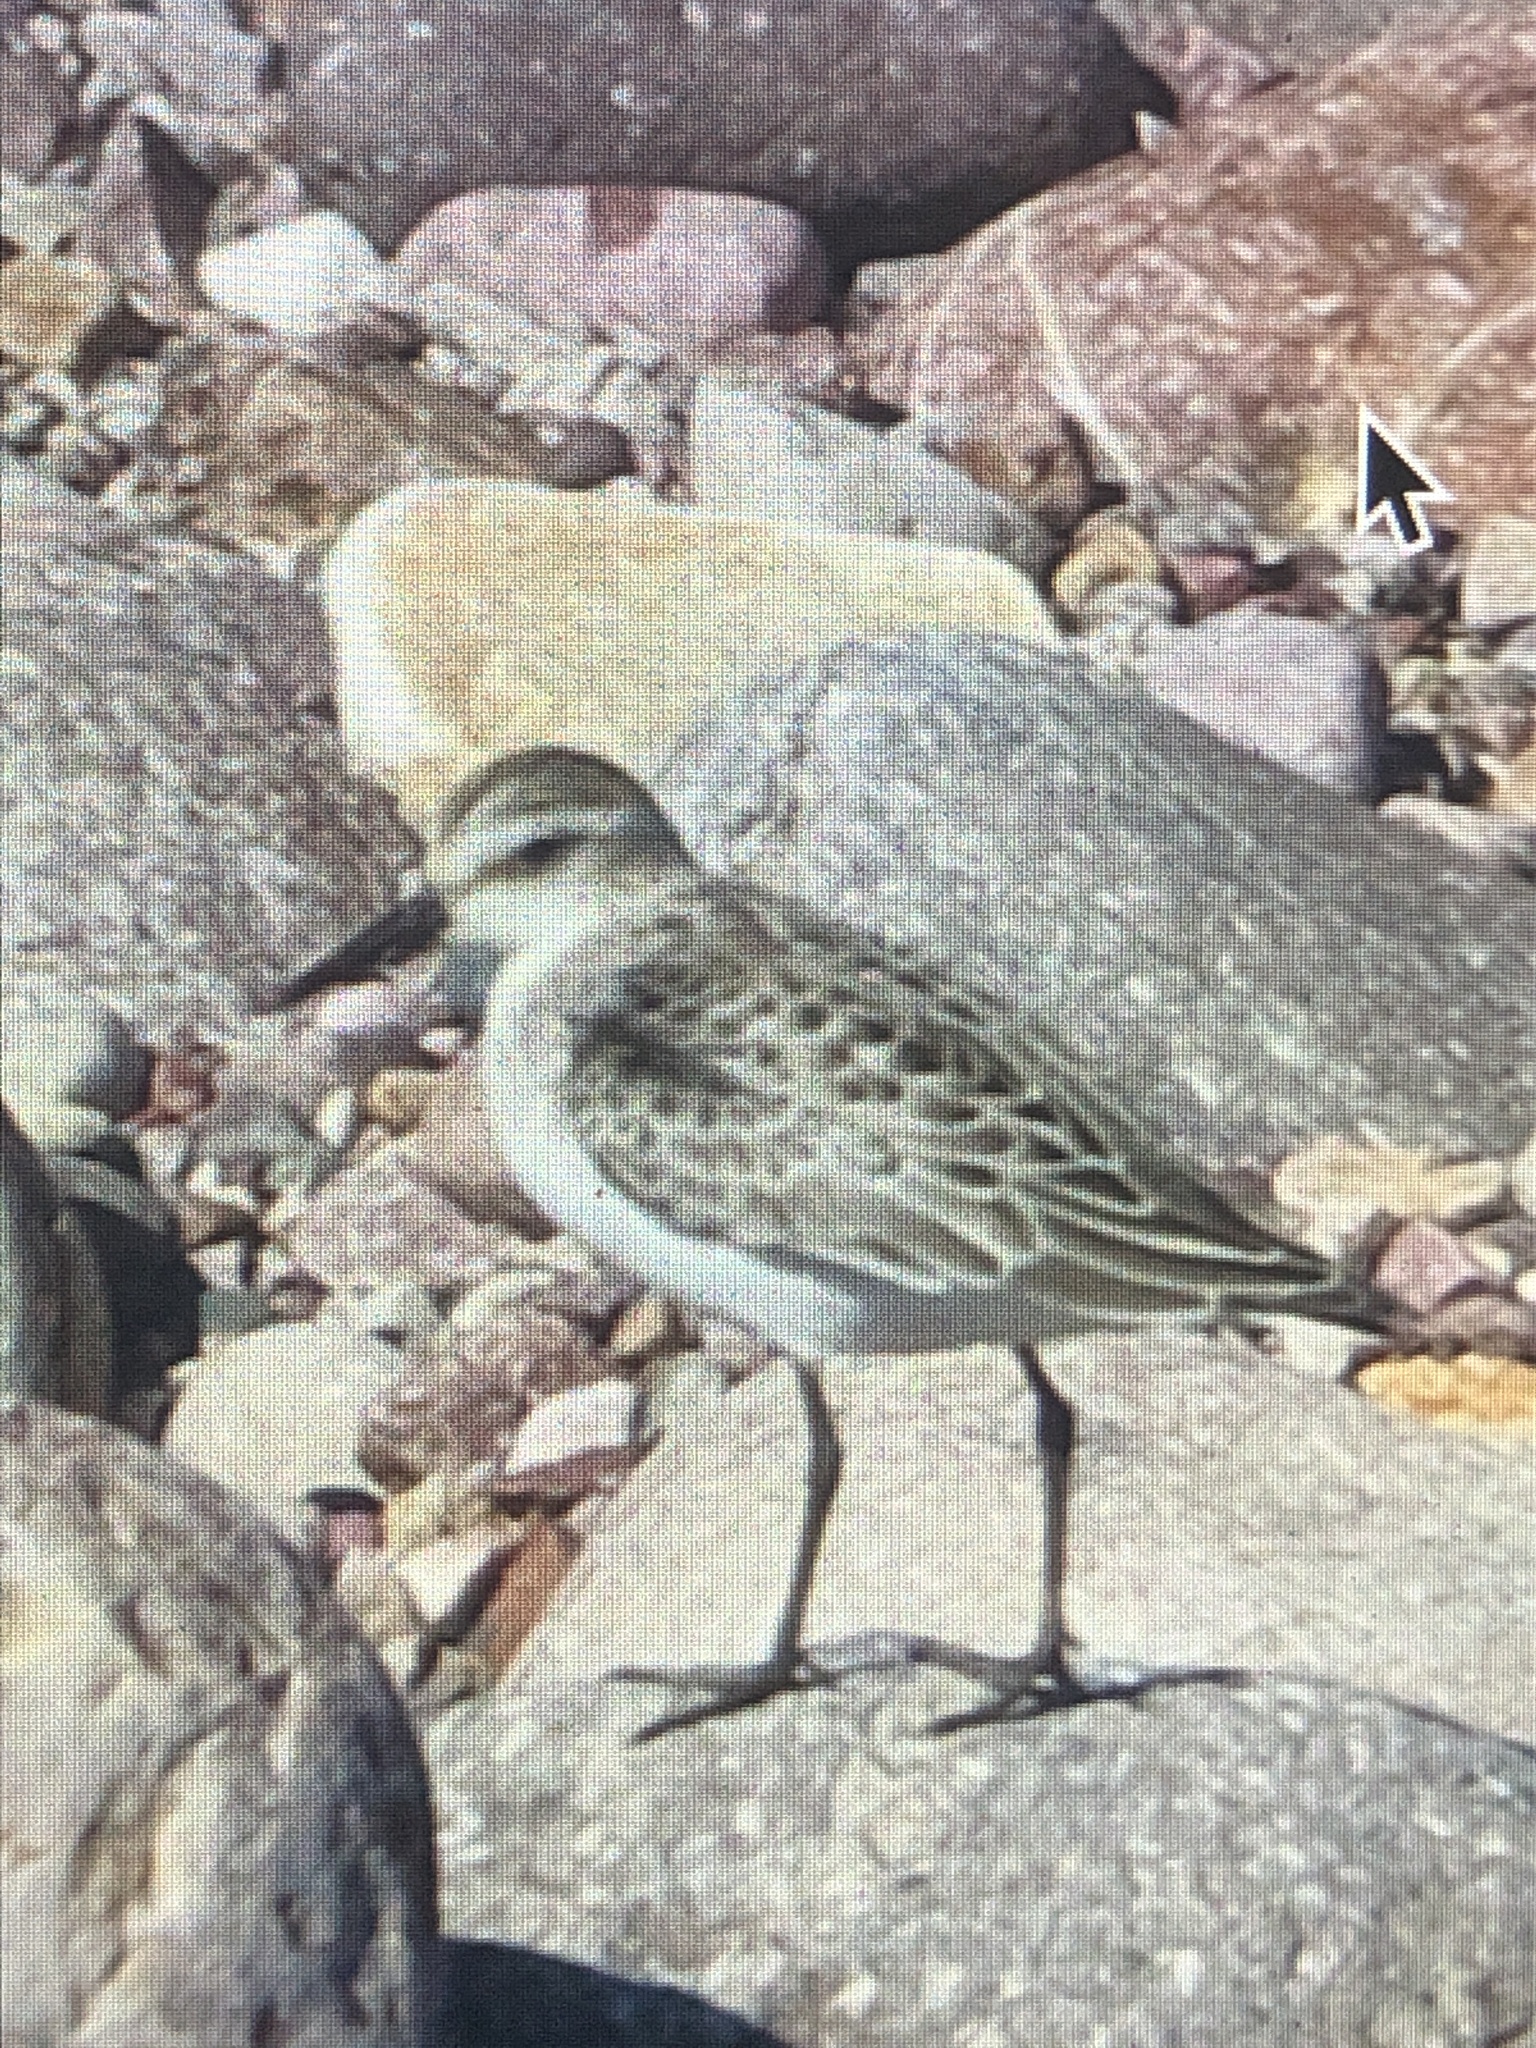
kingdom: Animalia
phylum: Chordata
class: Aves
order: Charadriiformes
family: Scolopacidae
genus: Calidris
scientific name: Calidris canutus
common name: Red knot
